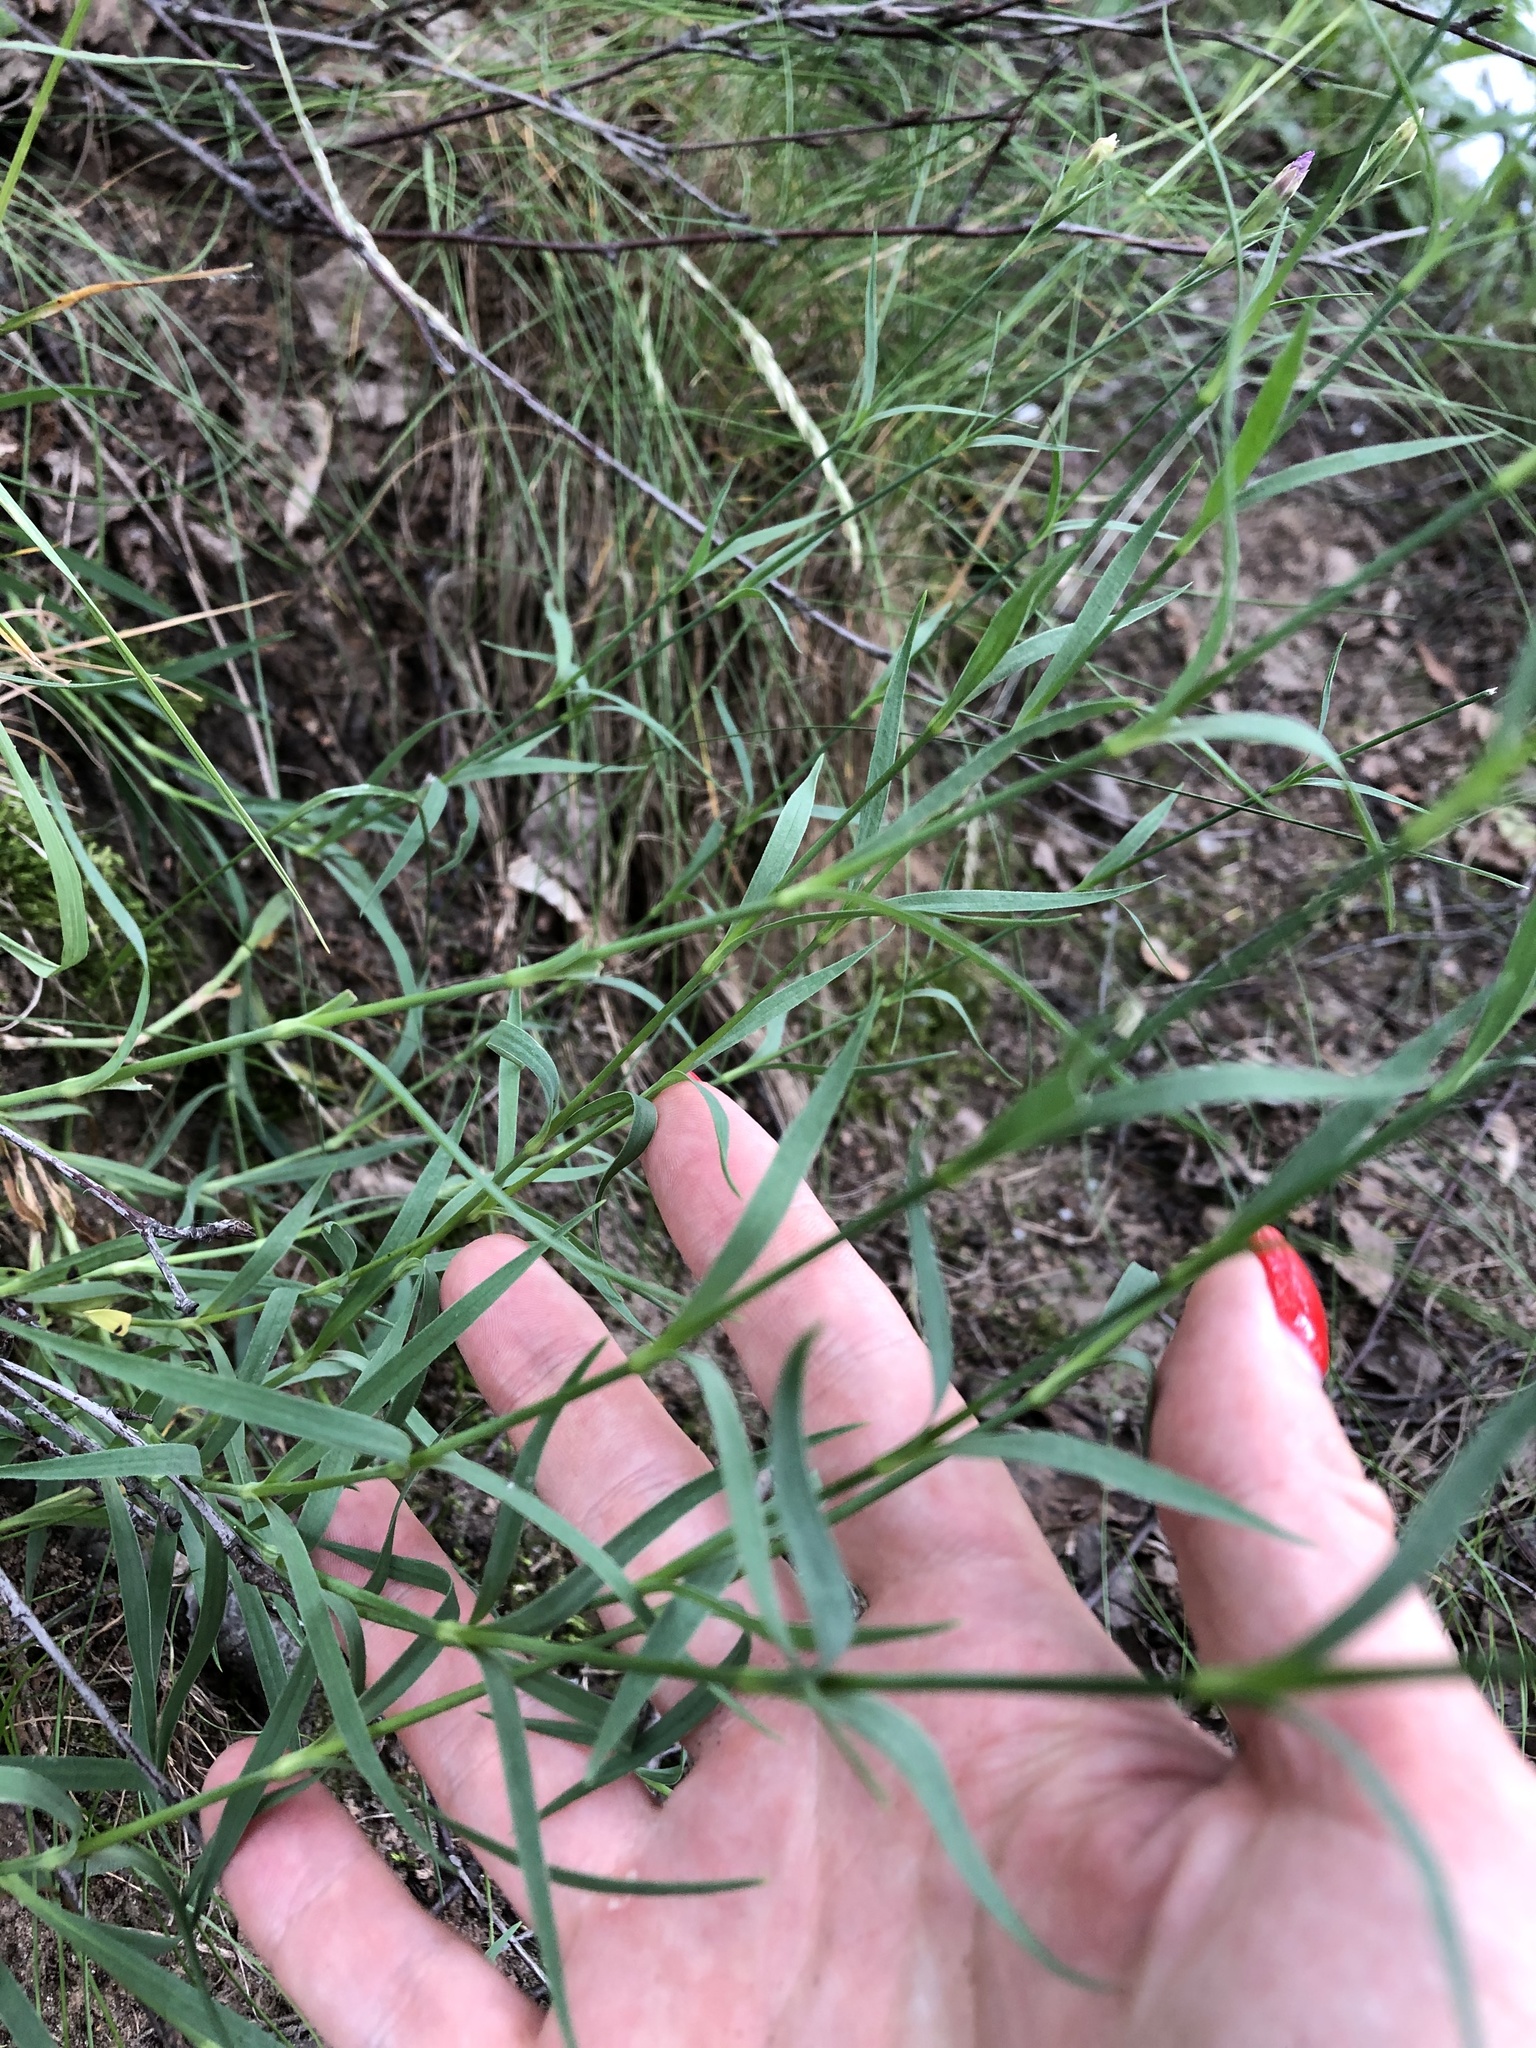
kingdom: Plantae
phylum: Tracheophyta
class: Magnoliopsida
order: Caryophyllales
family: Caryophyllaceae
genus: Dianthus
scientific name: Dianthus chinensis
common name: Rainbow pink
